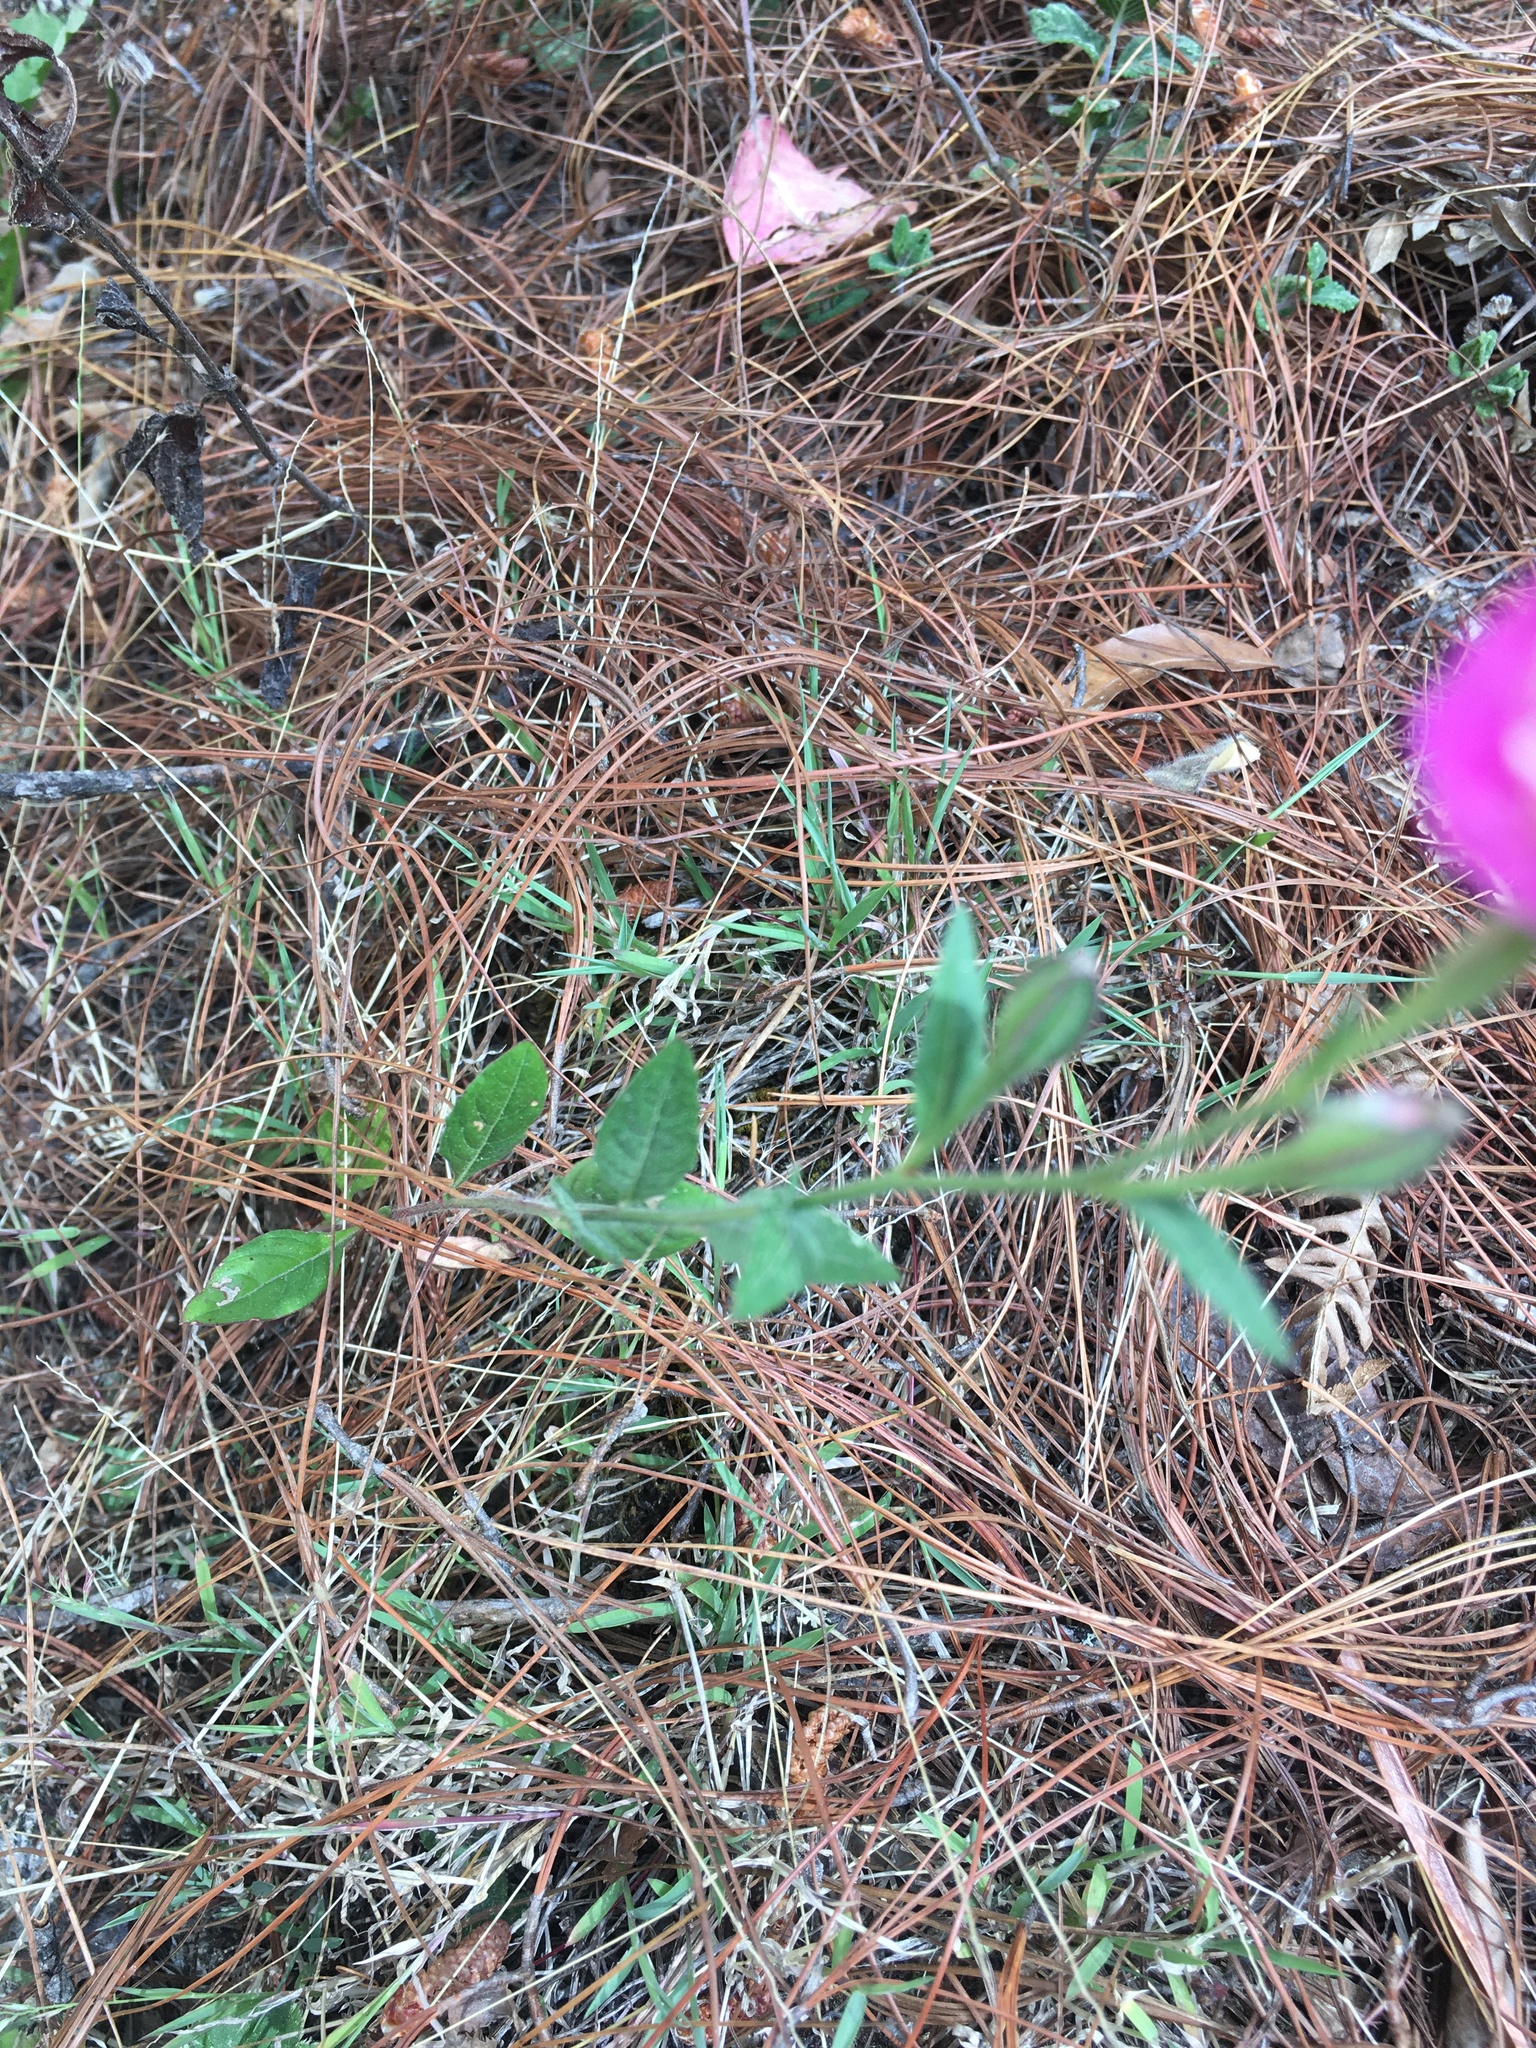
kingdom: Plantae
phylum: Tracheophyta
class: Magnoliopsida
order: Myrtales
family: Onagraceae
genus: Oenothera
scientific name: Oenothera rosea
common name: Rosy evening-primrose
